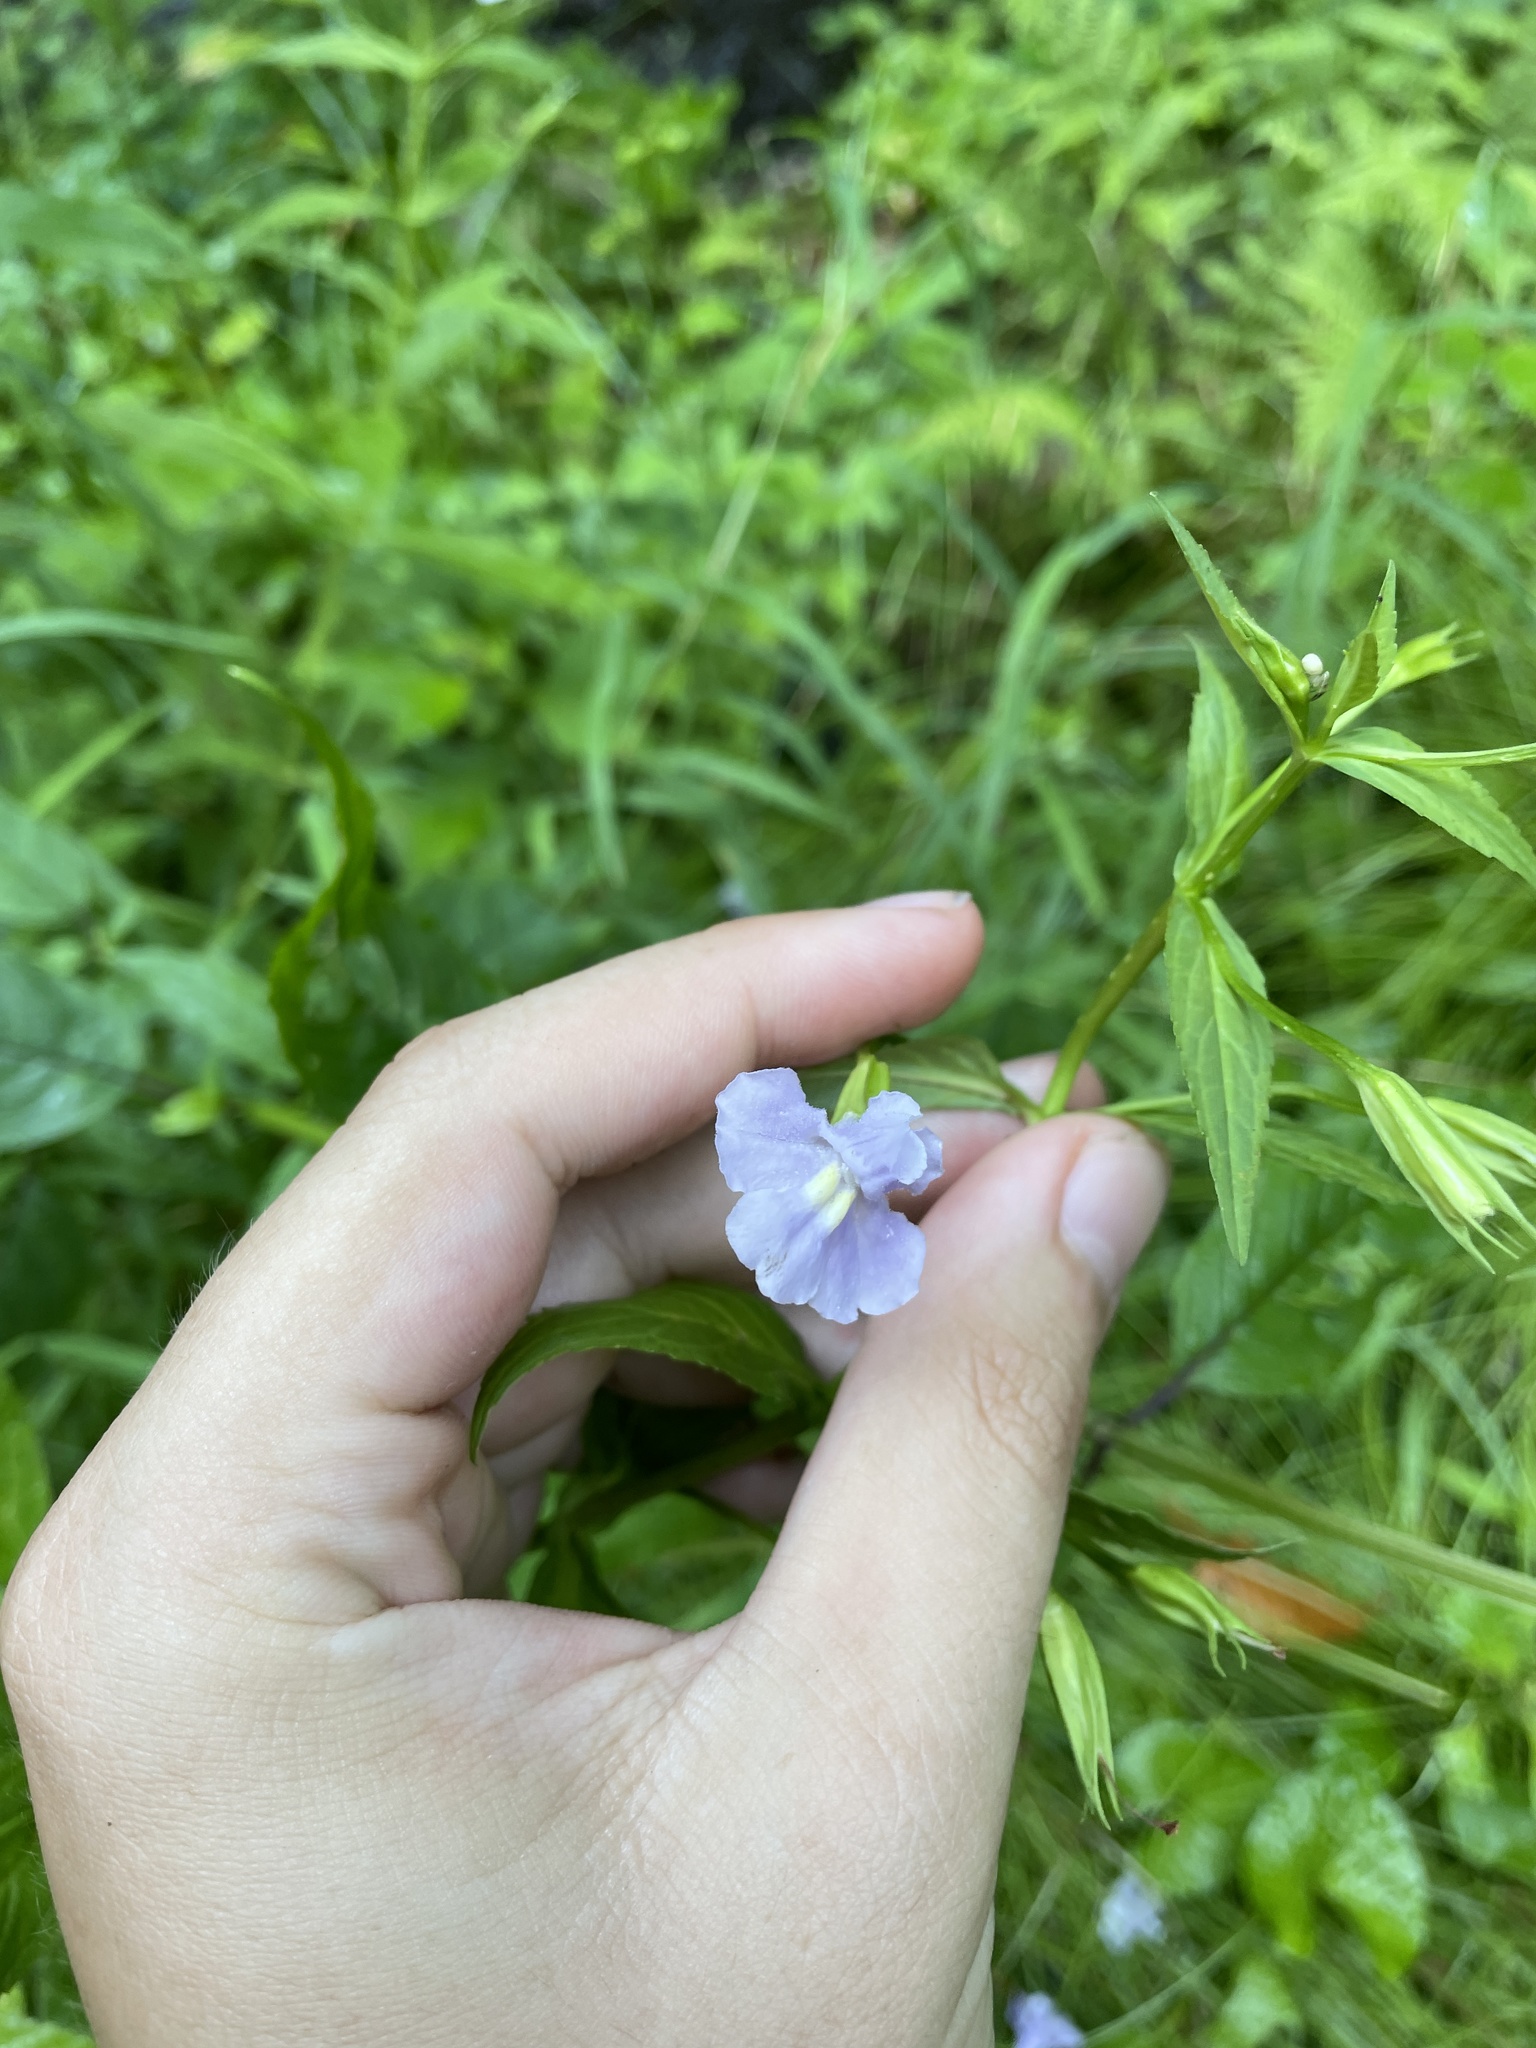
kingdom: Plantae
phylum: Tracheophyta
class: Magnoliopsida
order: Lamiales
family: Phrymaceae
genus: Mimulus
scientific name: Mimulus ringens
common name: Allegheny monkeyflower
